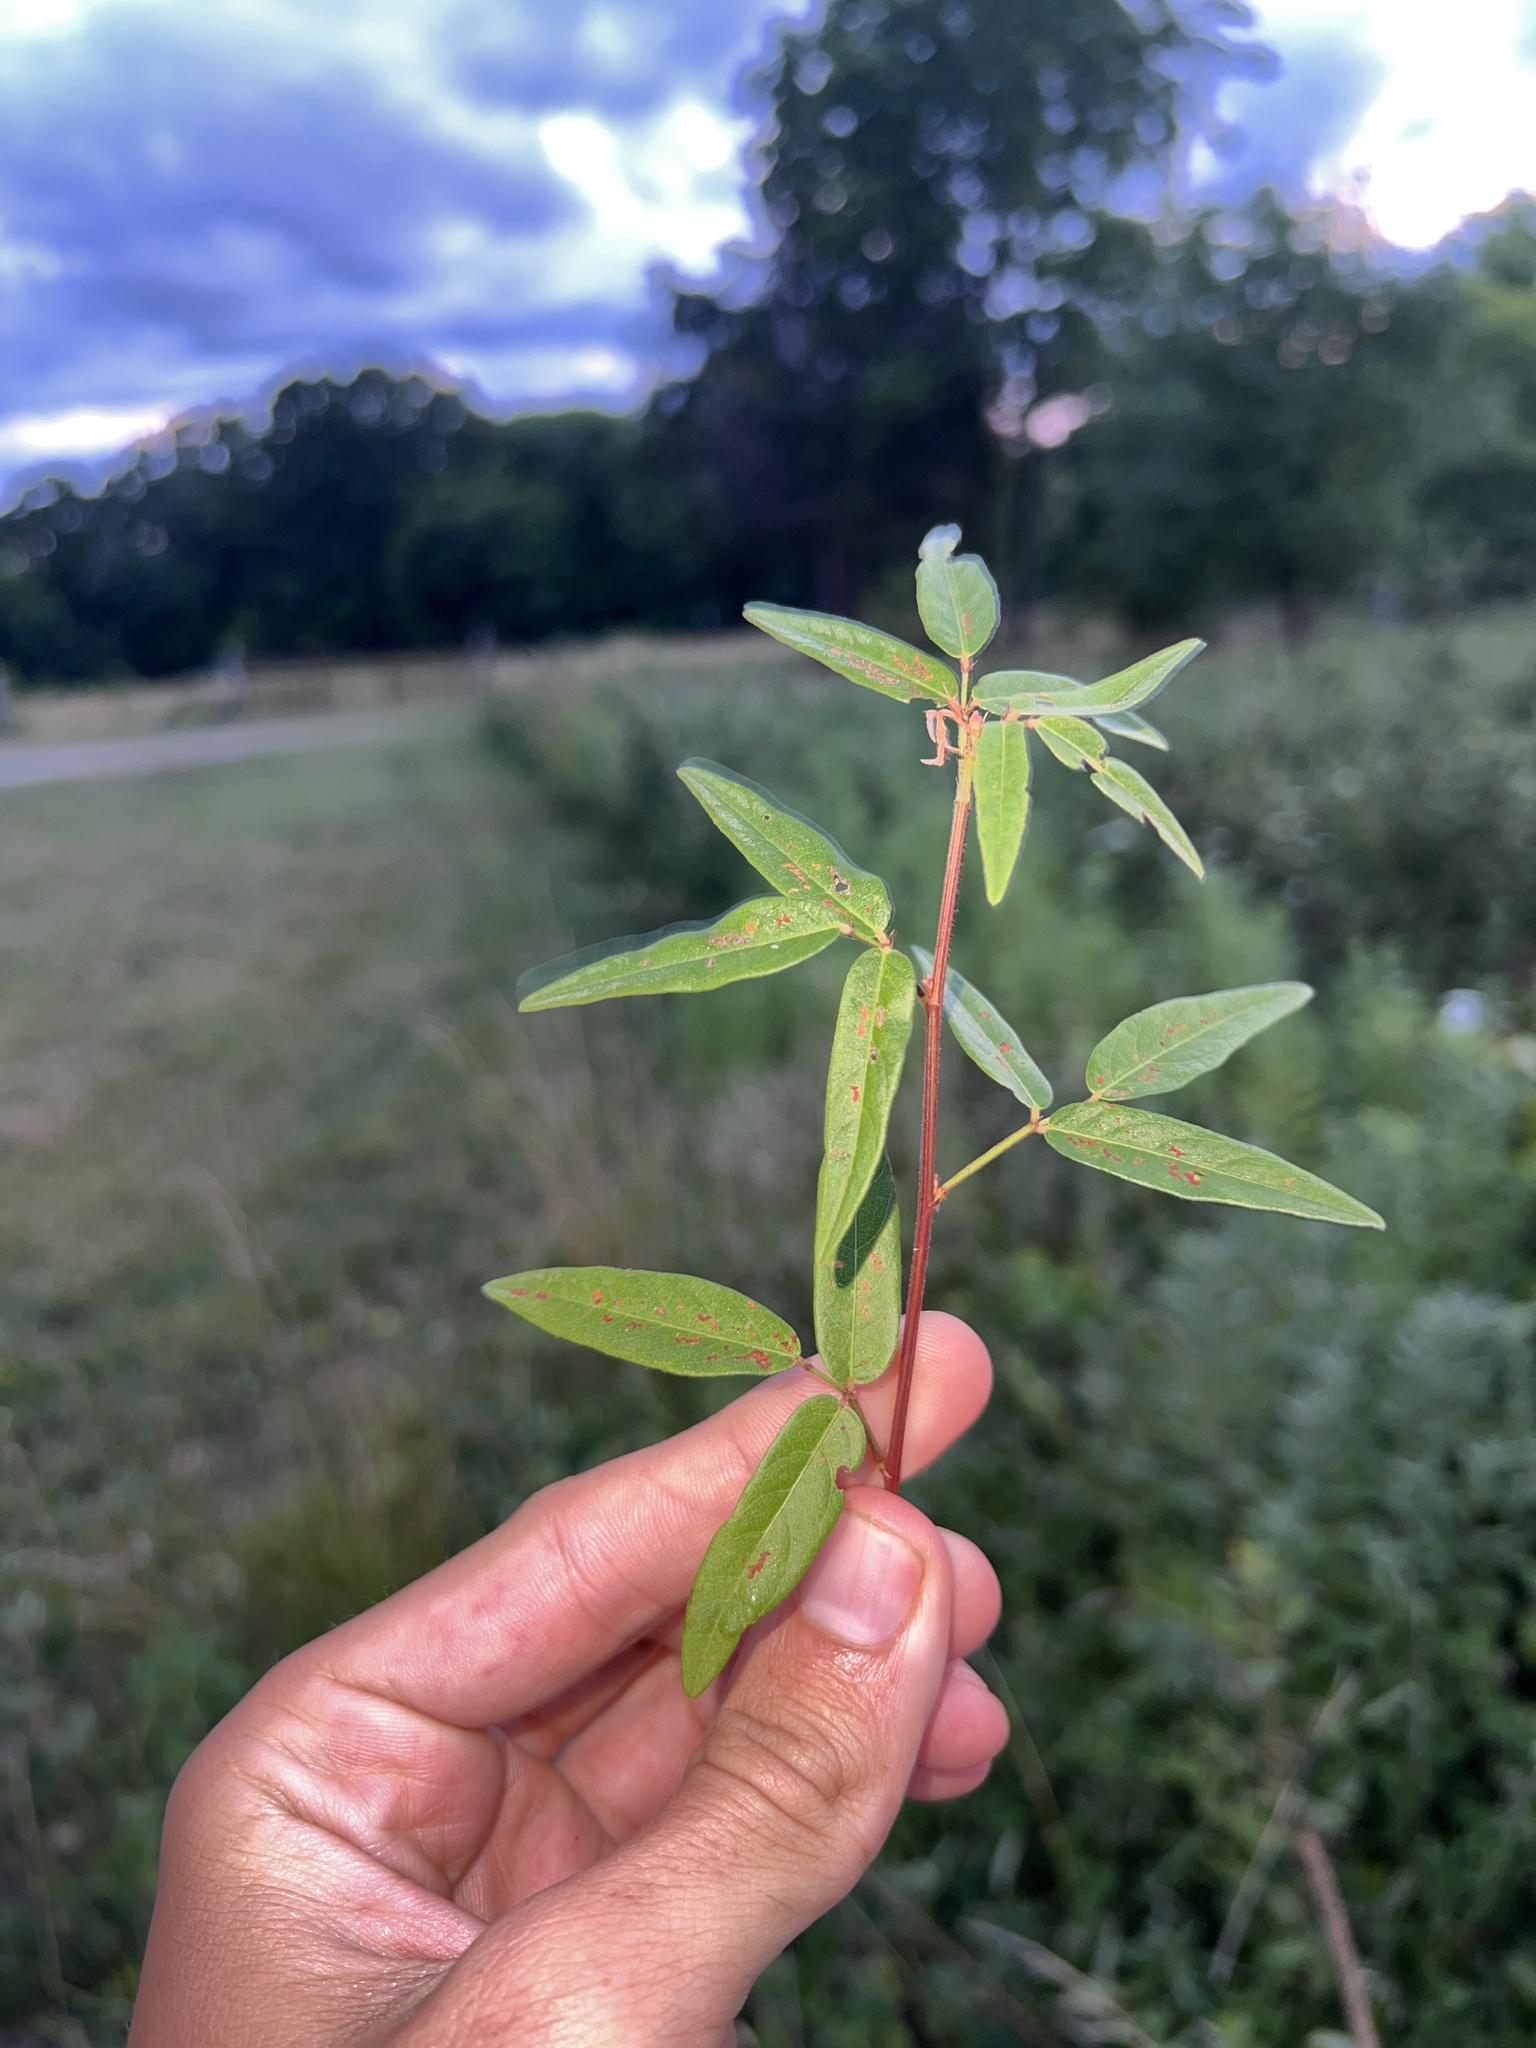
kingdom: Plantae
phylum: Tracheophyta
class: Magnoliopsida
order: Fabales
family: Fabaceae
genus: Desmodium
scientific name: Desmodium paniculatum
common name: Panicled tick-clover
